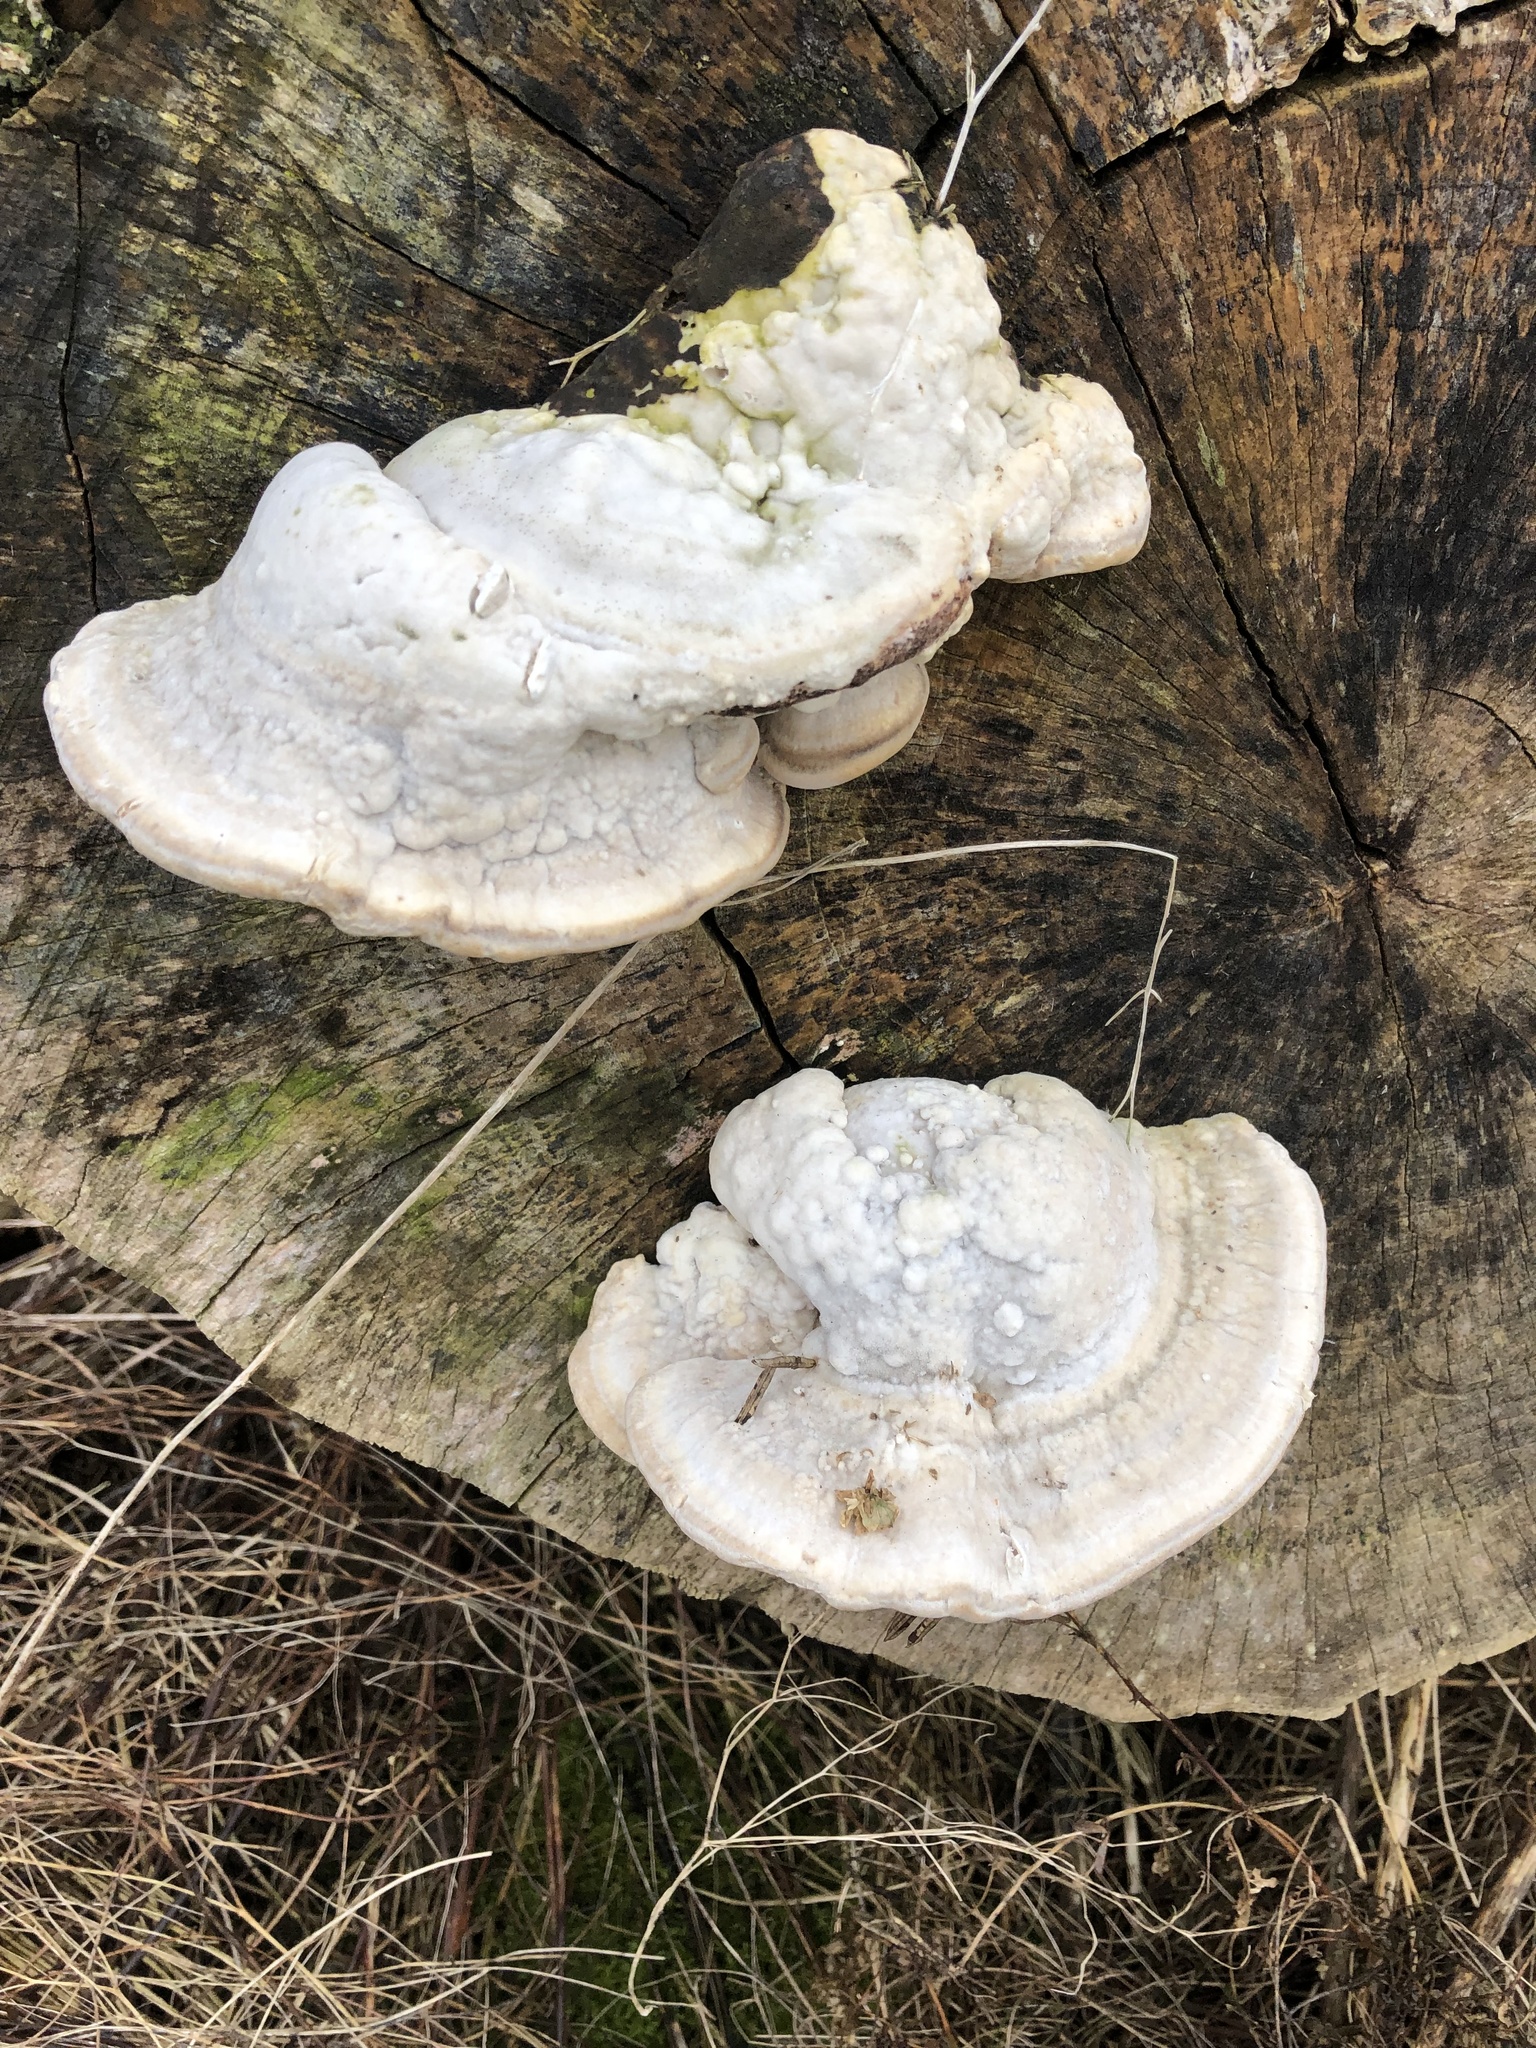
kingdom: Fungi
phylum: Basidiomycota
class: Agaricomycetes
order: Polyporales
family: Polyporaceae
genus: Trametes
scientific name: Trametes gibbosa
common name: Lumpy bracket
